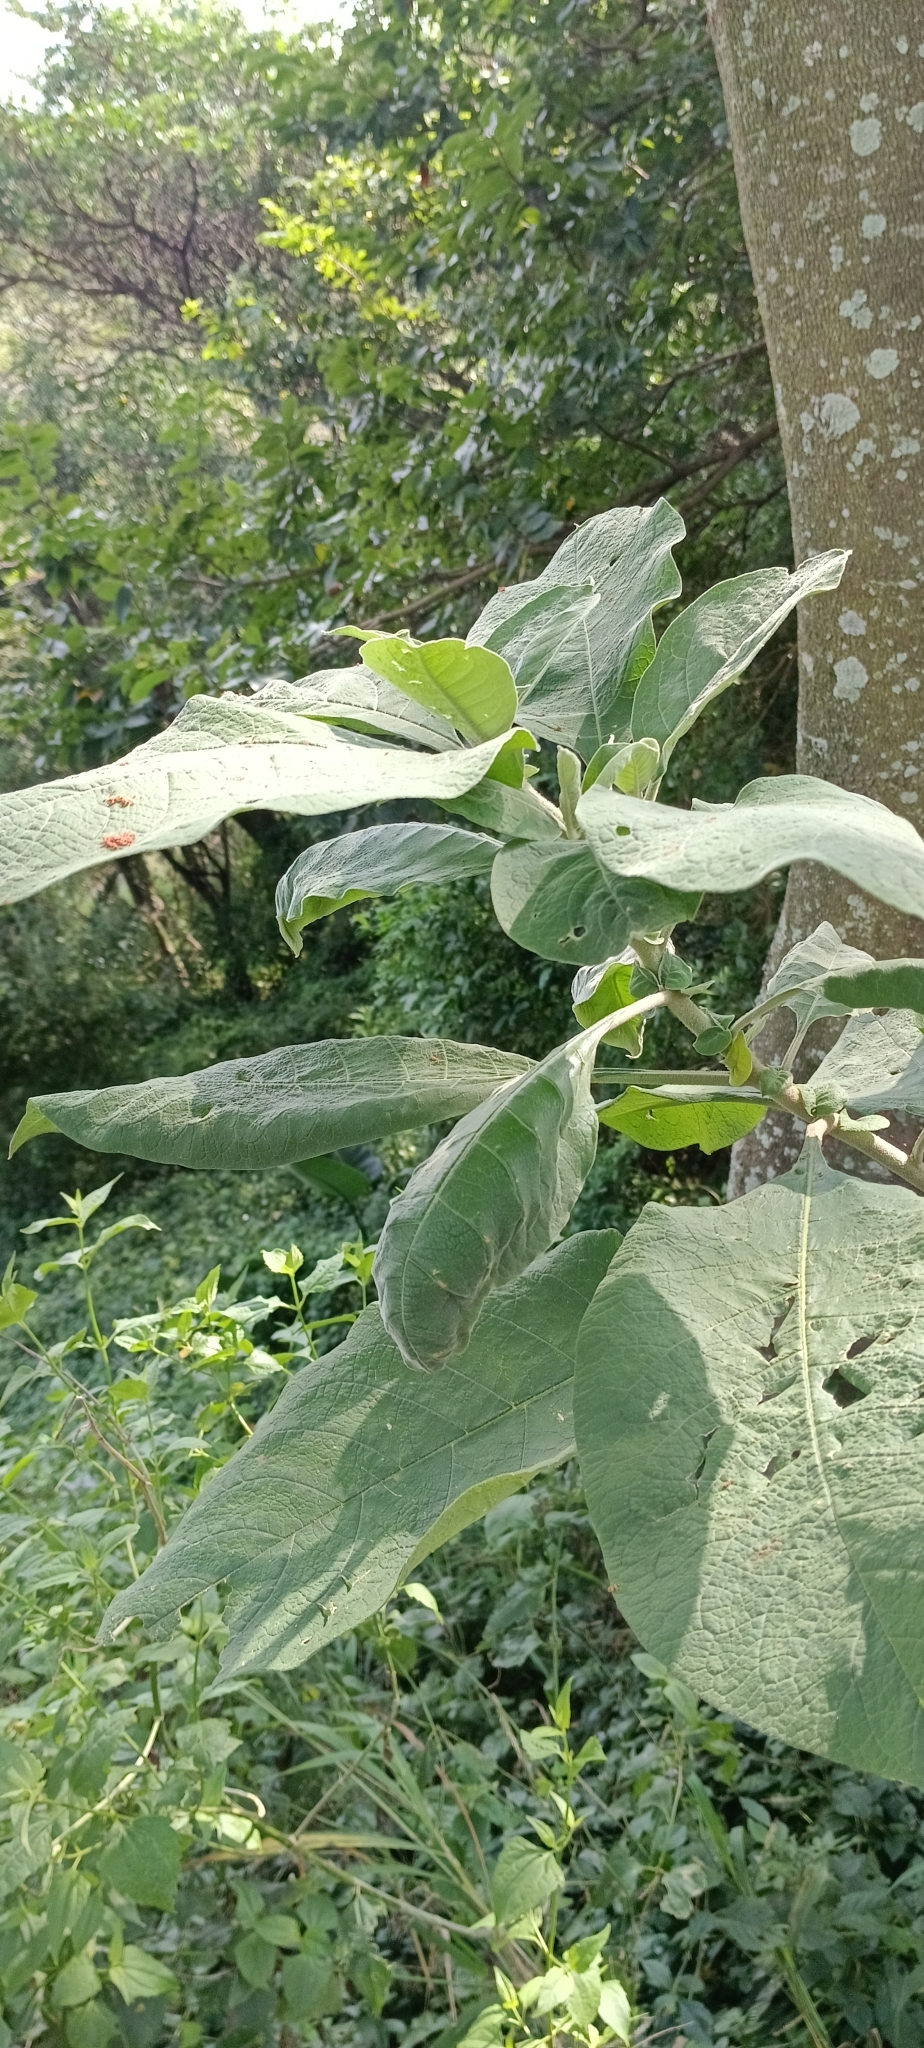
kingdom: Plantae
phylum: Tracheophyta
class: Magnoliopsida
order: Solanales
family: Solanaceae
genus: Solanum
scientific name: Solanum mauritianum
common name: Earleaf nightshade
